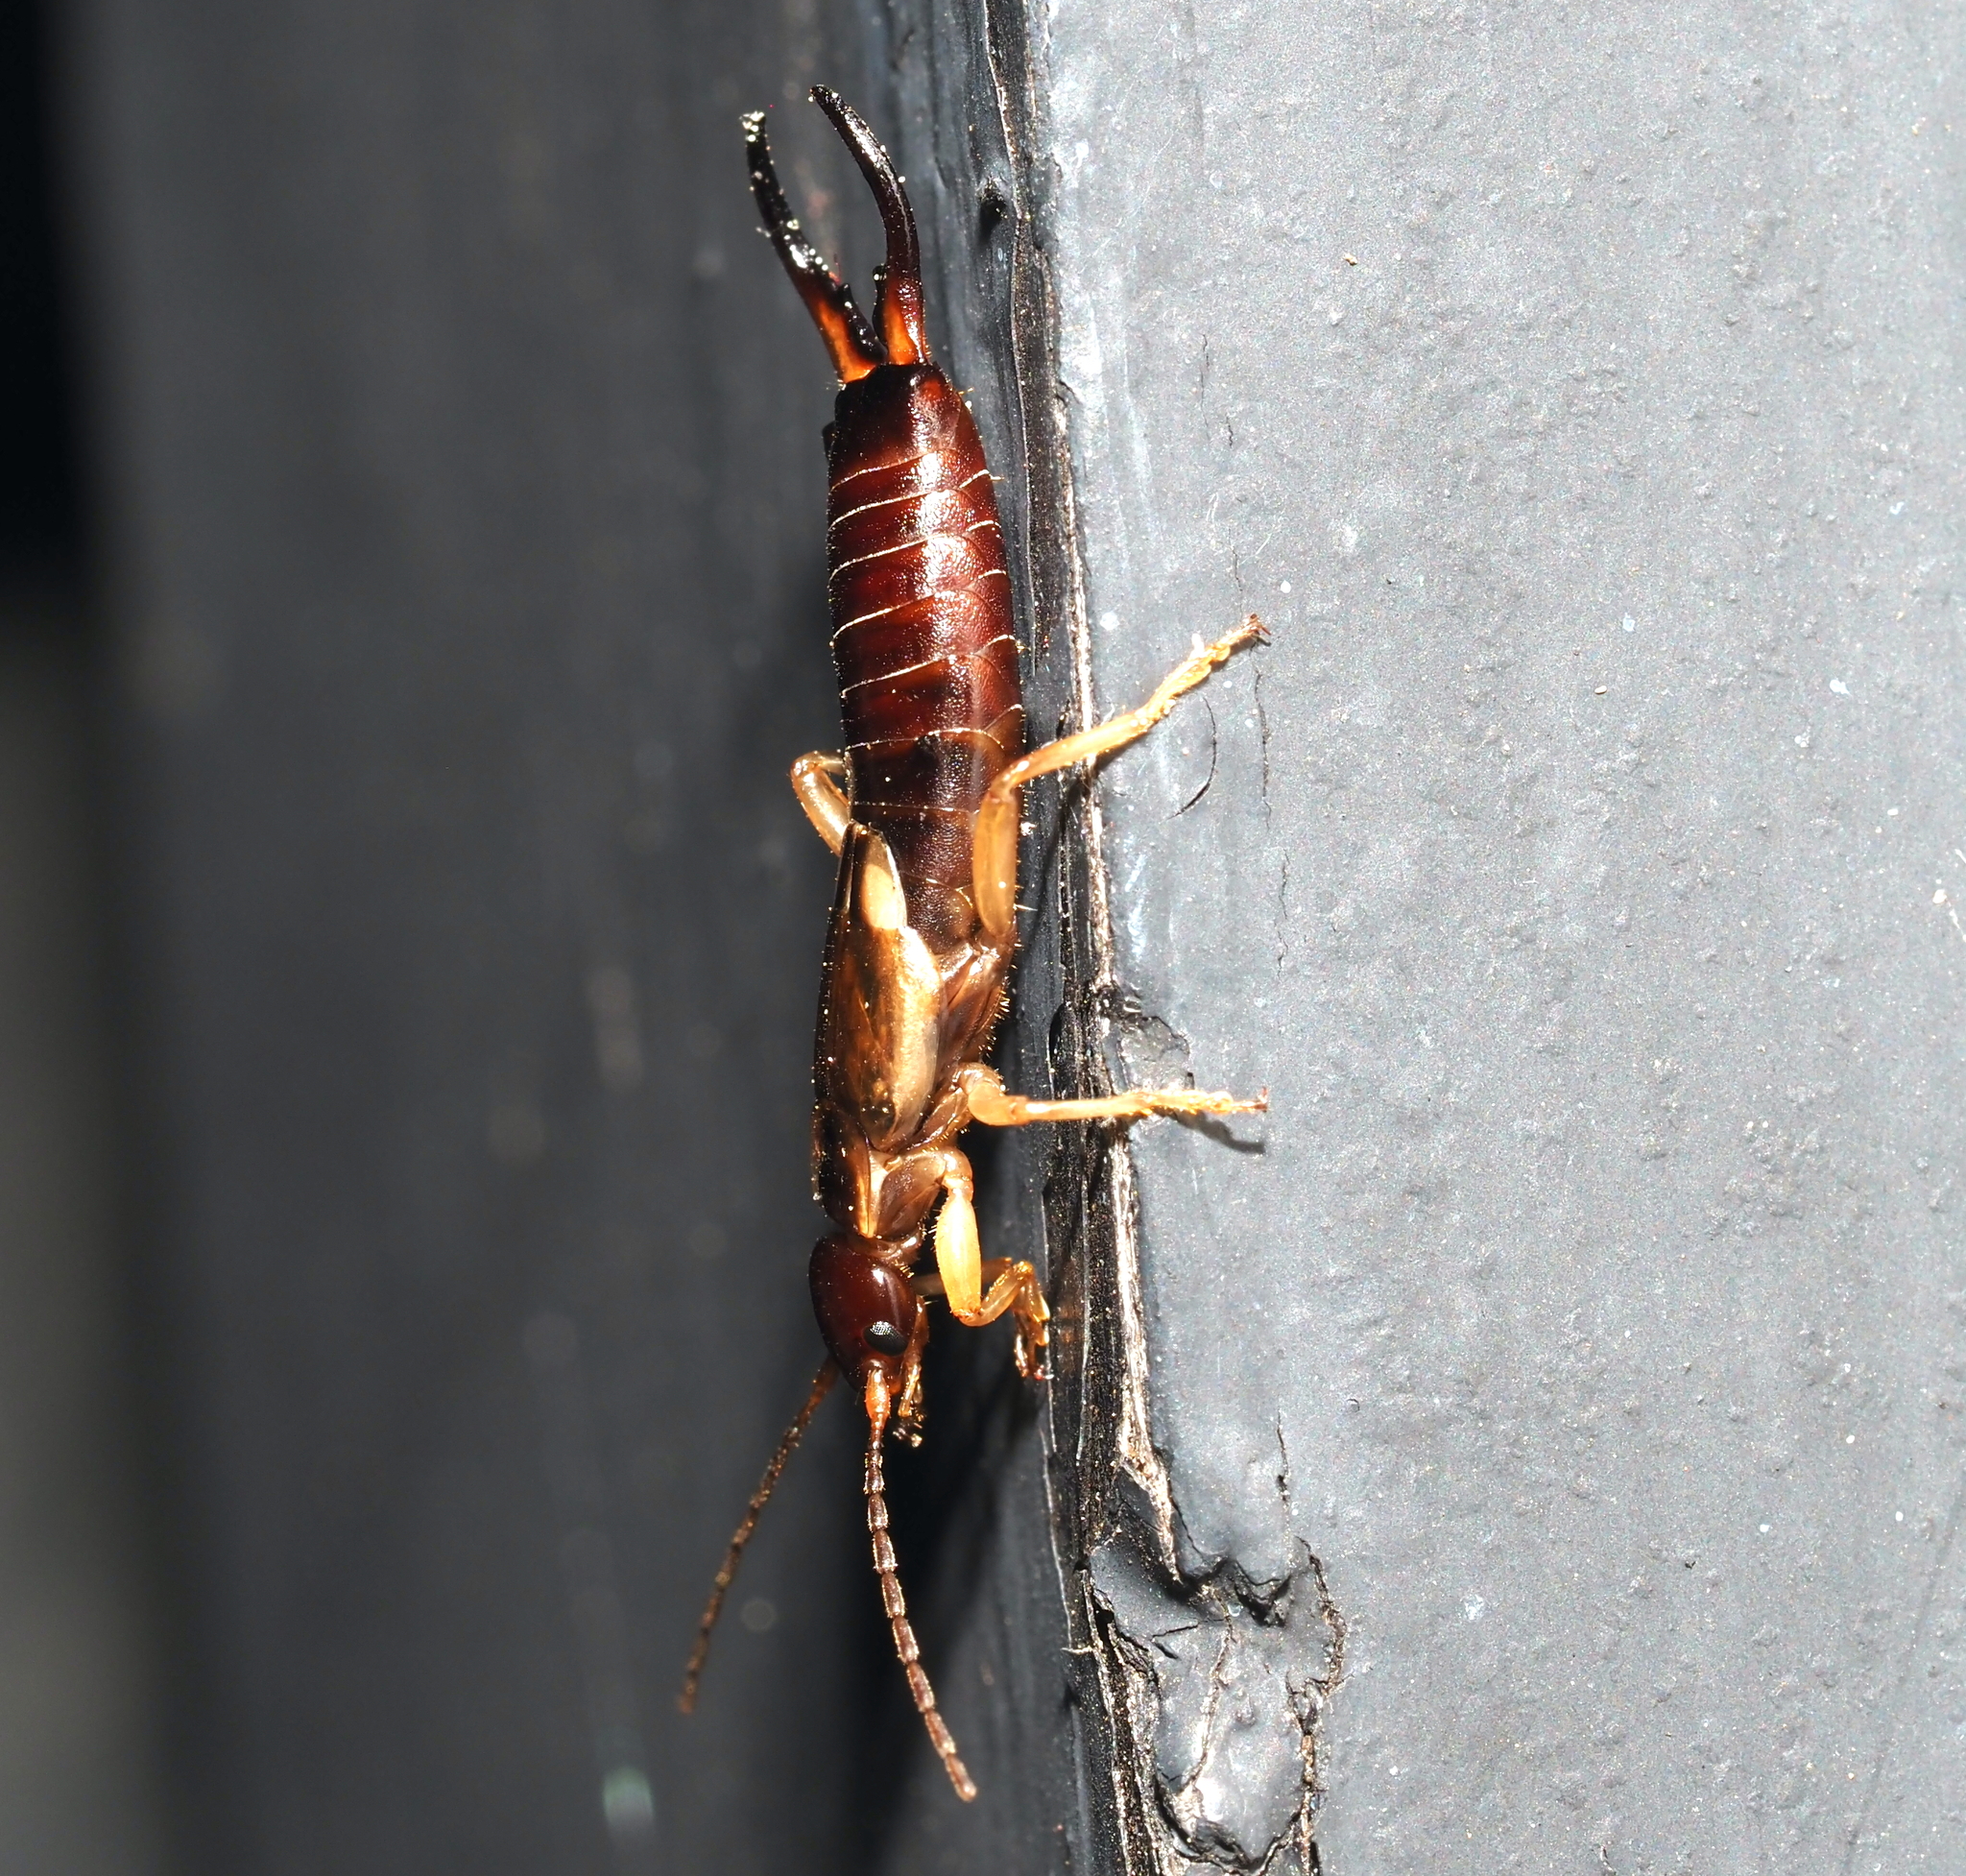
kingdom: Animalia
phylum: Arthropoda
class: Insecta
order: Dermaptera
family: Forficulidae
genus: Forficula
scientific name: Forficula
